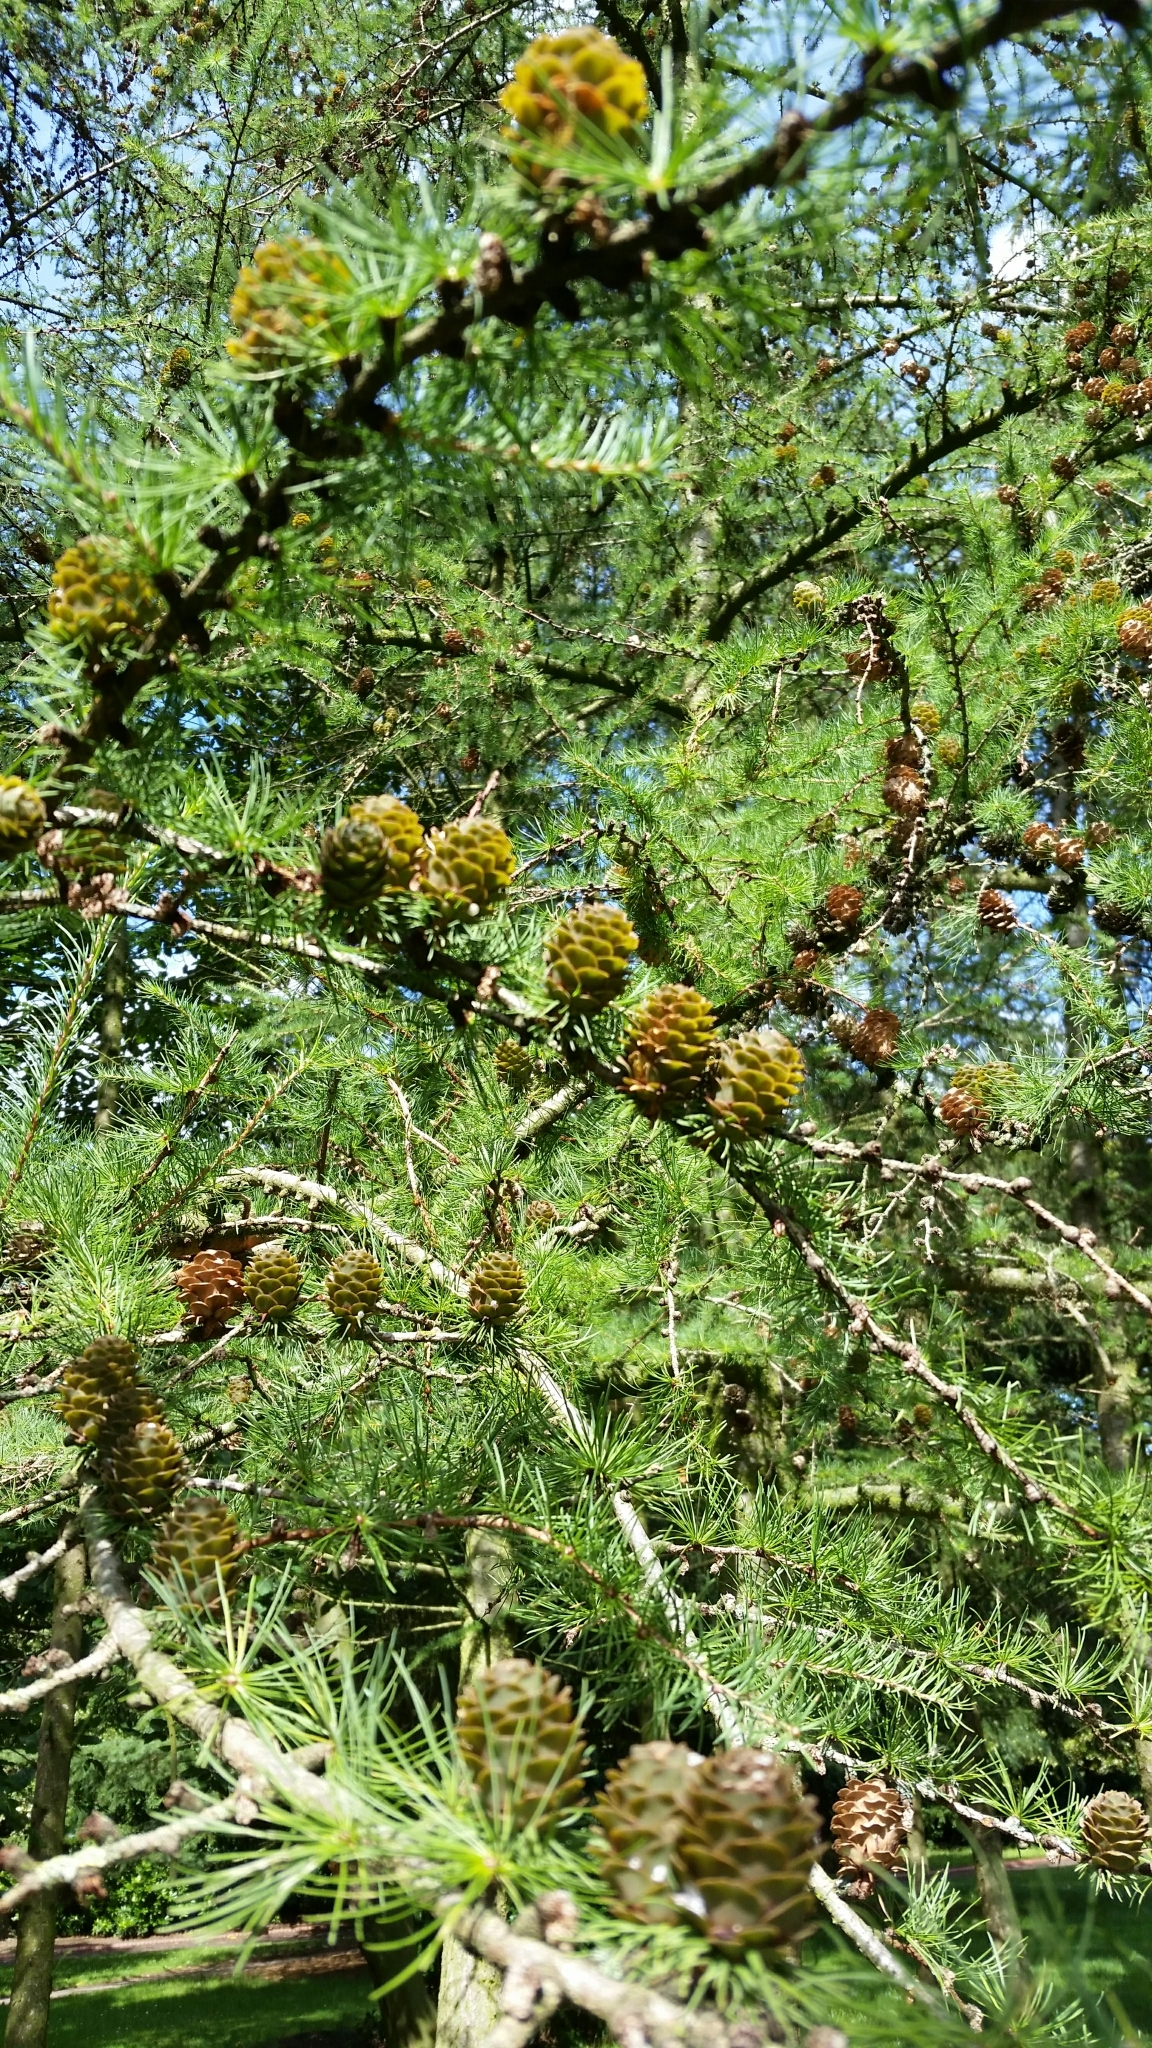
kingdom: Plantae
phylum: Tracheophyta
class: Pinopsida
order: Pinales
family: Pinaceae
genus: Larix
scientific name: Larix decidua
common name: European larch
